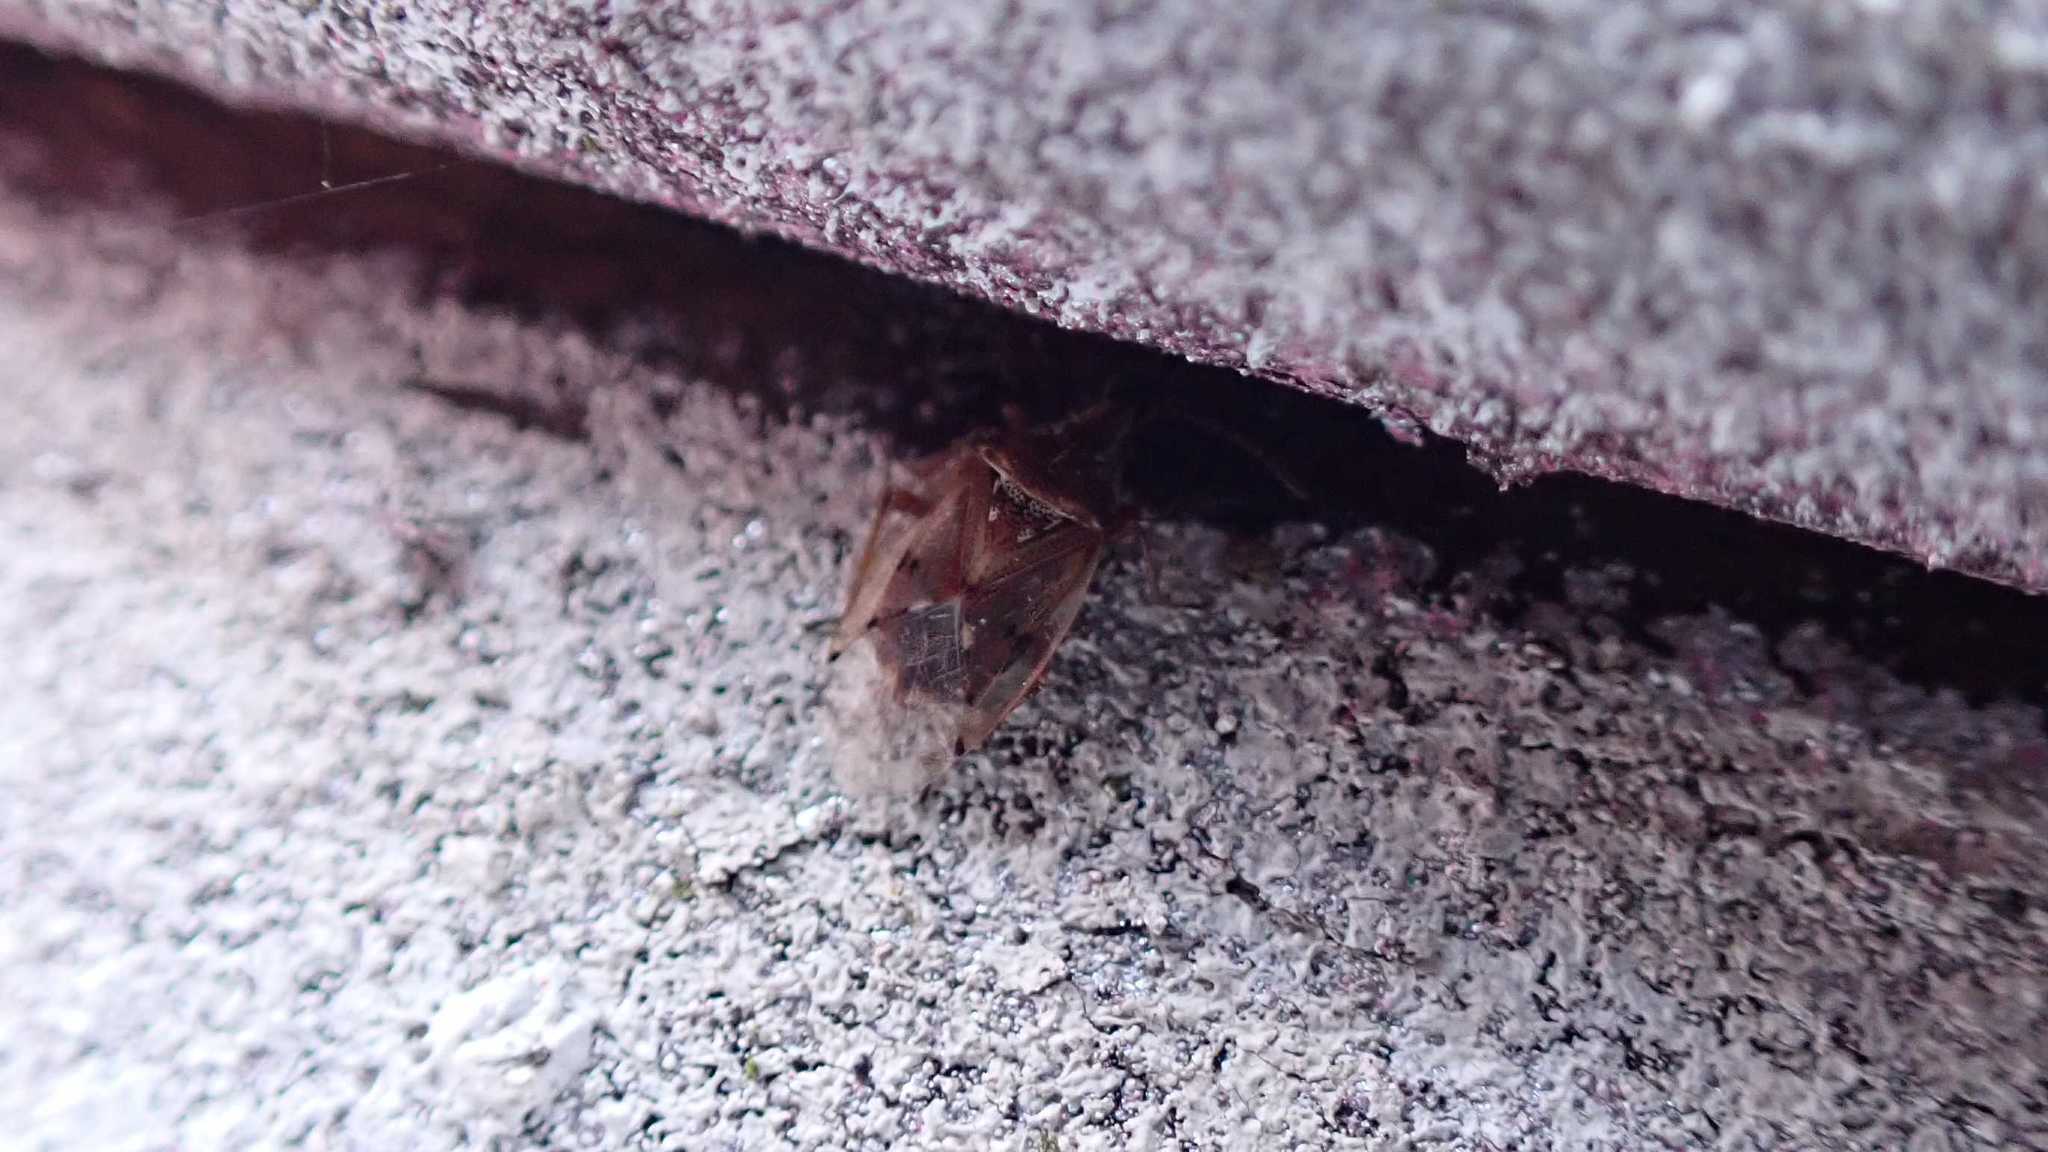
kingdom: Animalia
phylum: Arthropoda
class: Insecta
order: Hemiptera
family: Lygaeidae
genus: Kleidocerys
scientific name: Kleidocerys resedae
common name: Birch catkin bug
